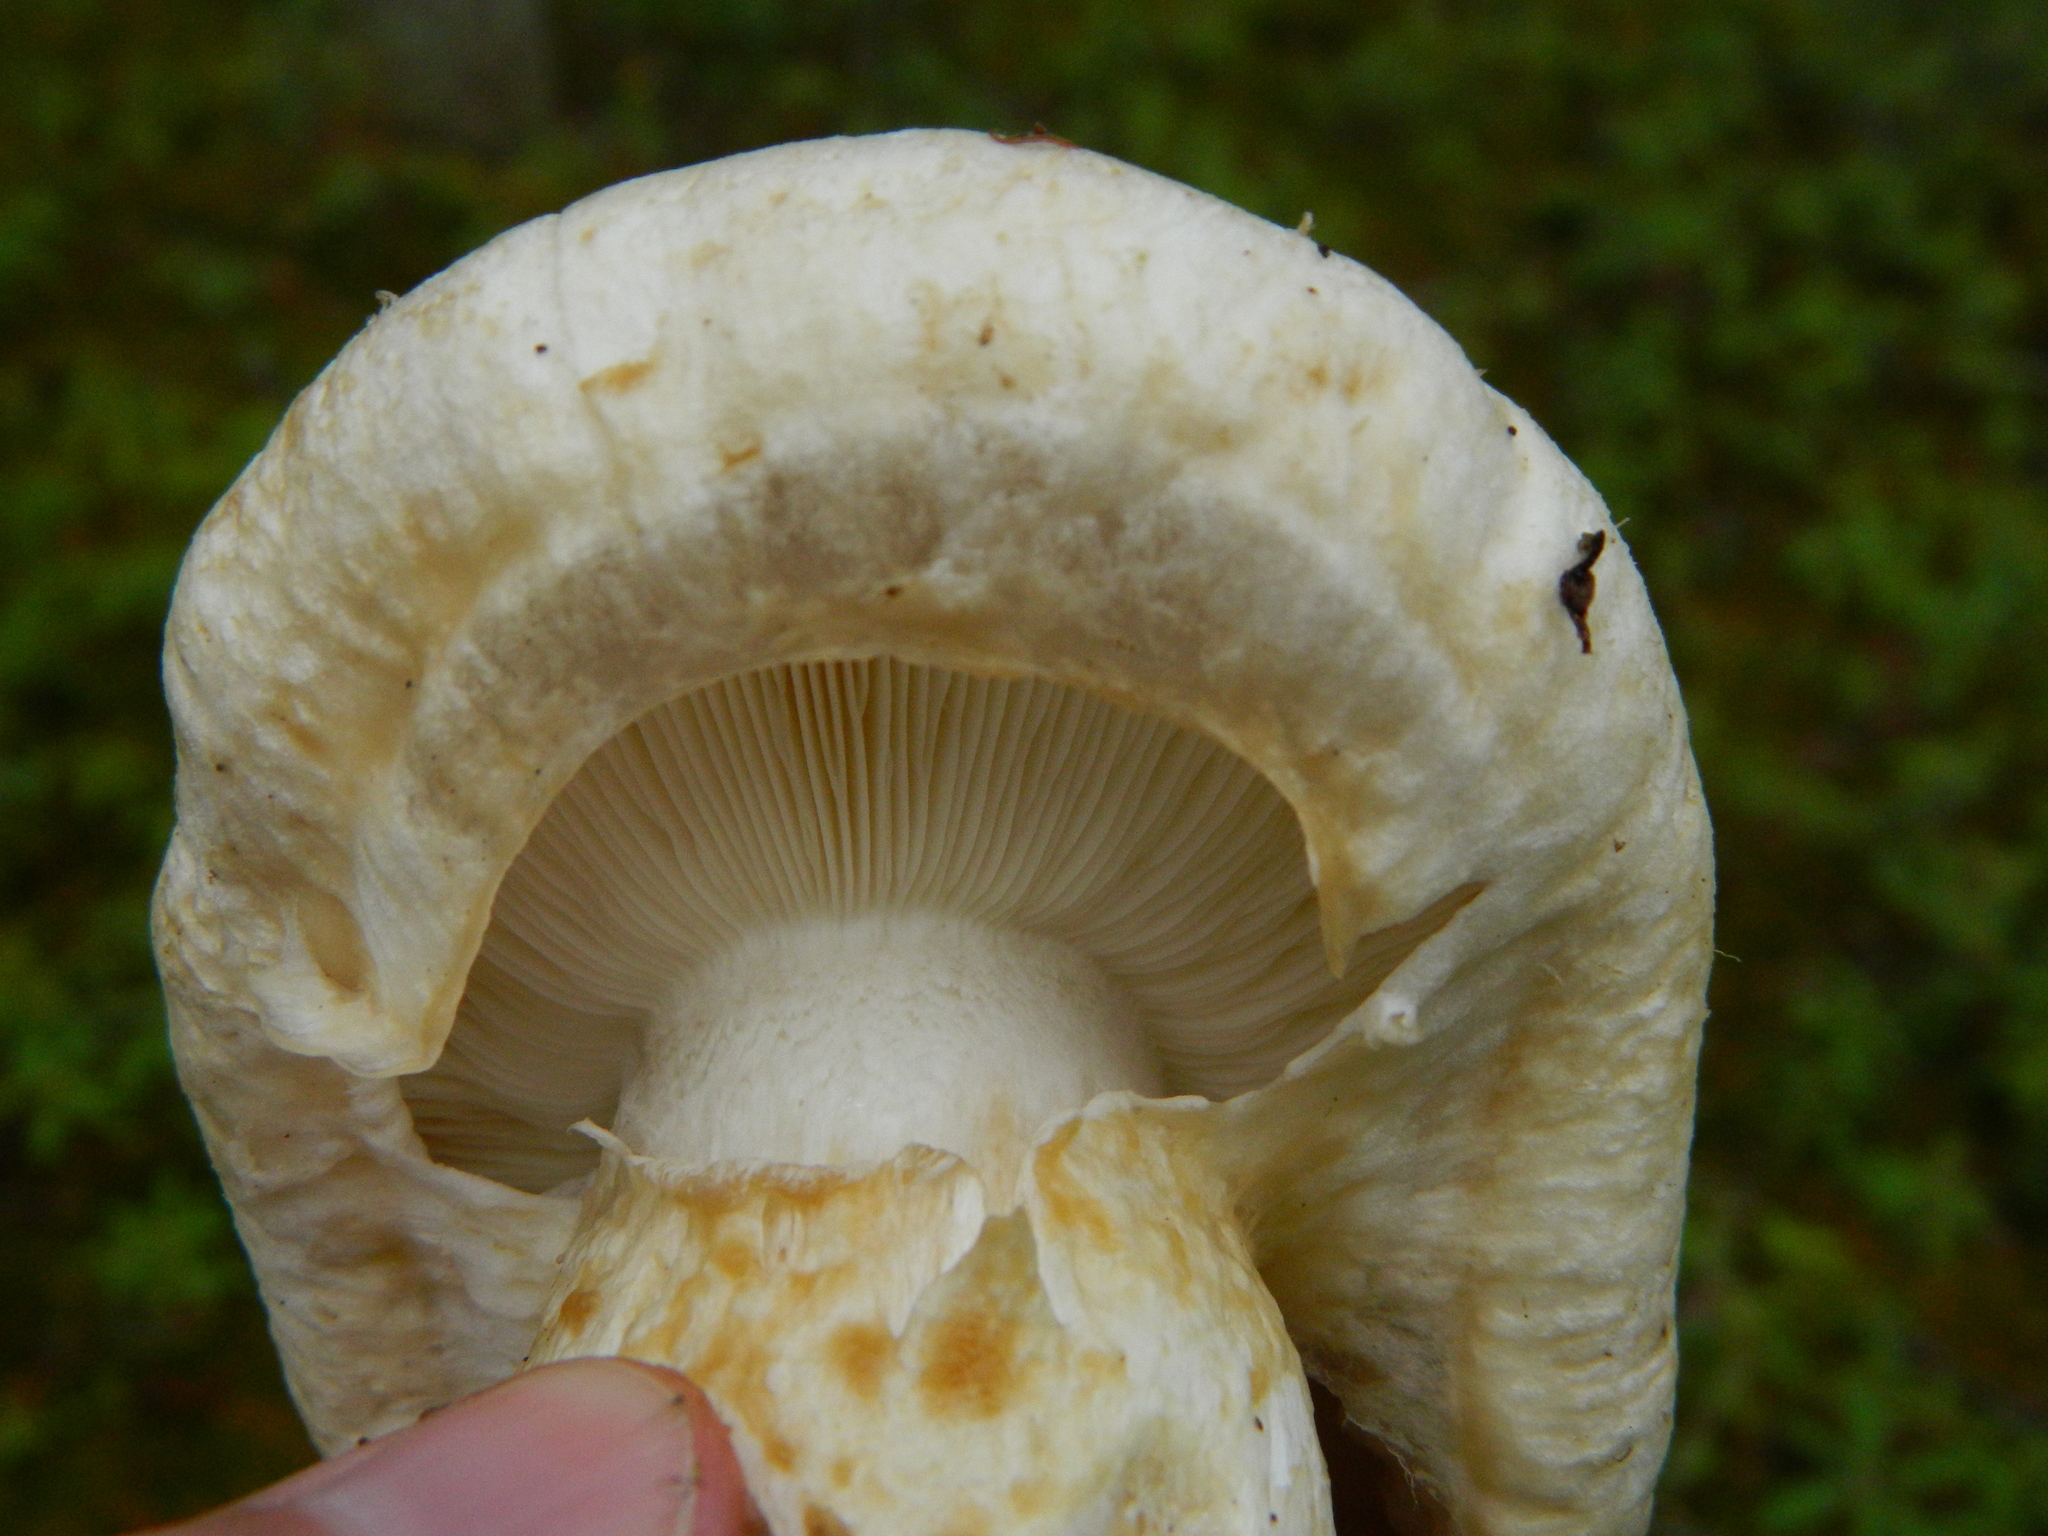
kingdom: Fungi
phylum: Basidiomycota
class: Agaricomycetes
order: Agaricales
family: Tricholomataceae
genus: Tricholoma
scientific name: Tricholoma magnivelare
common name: American matsutake
